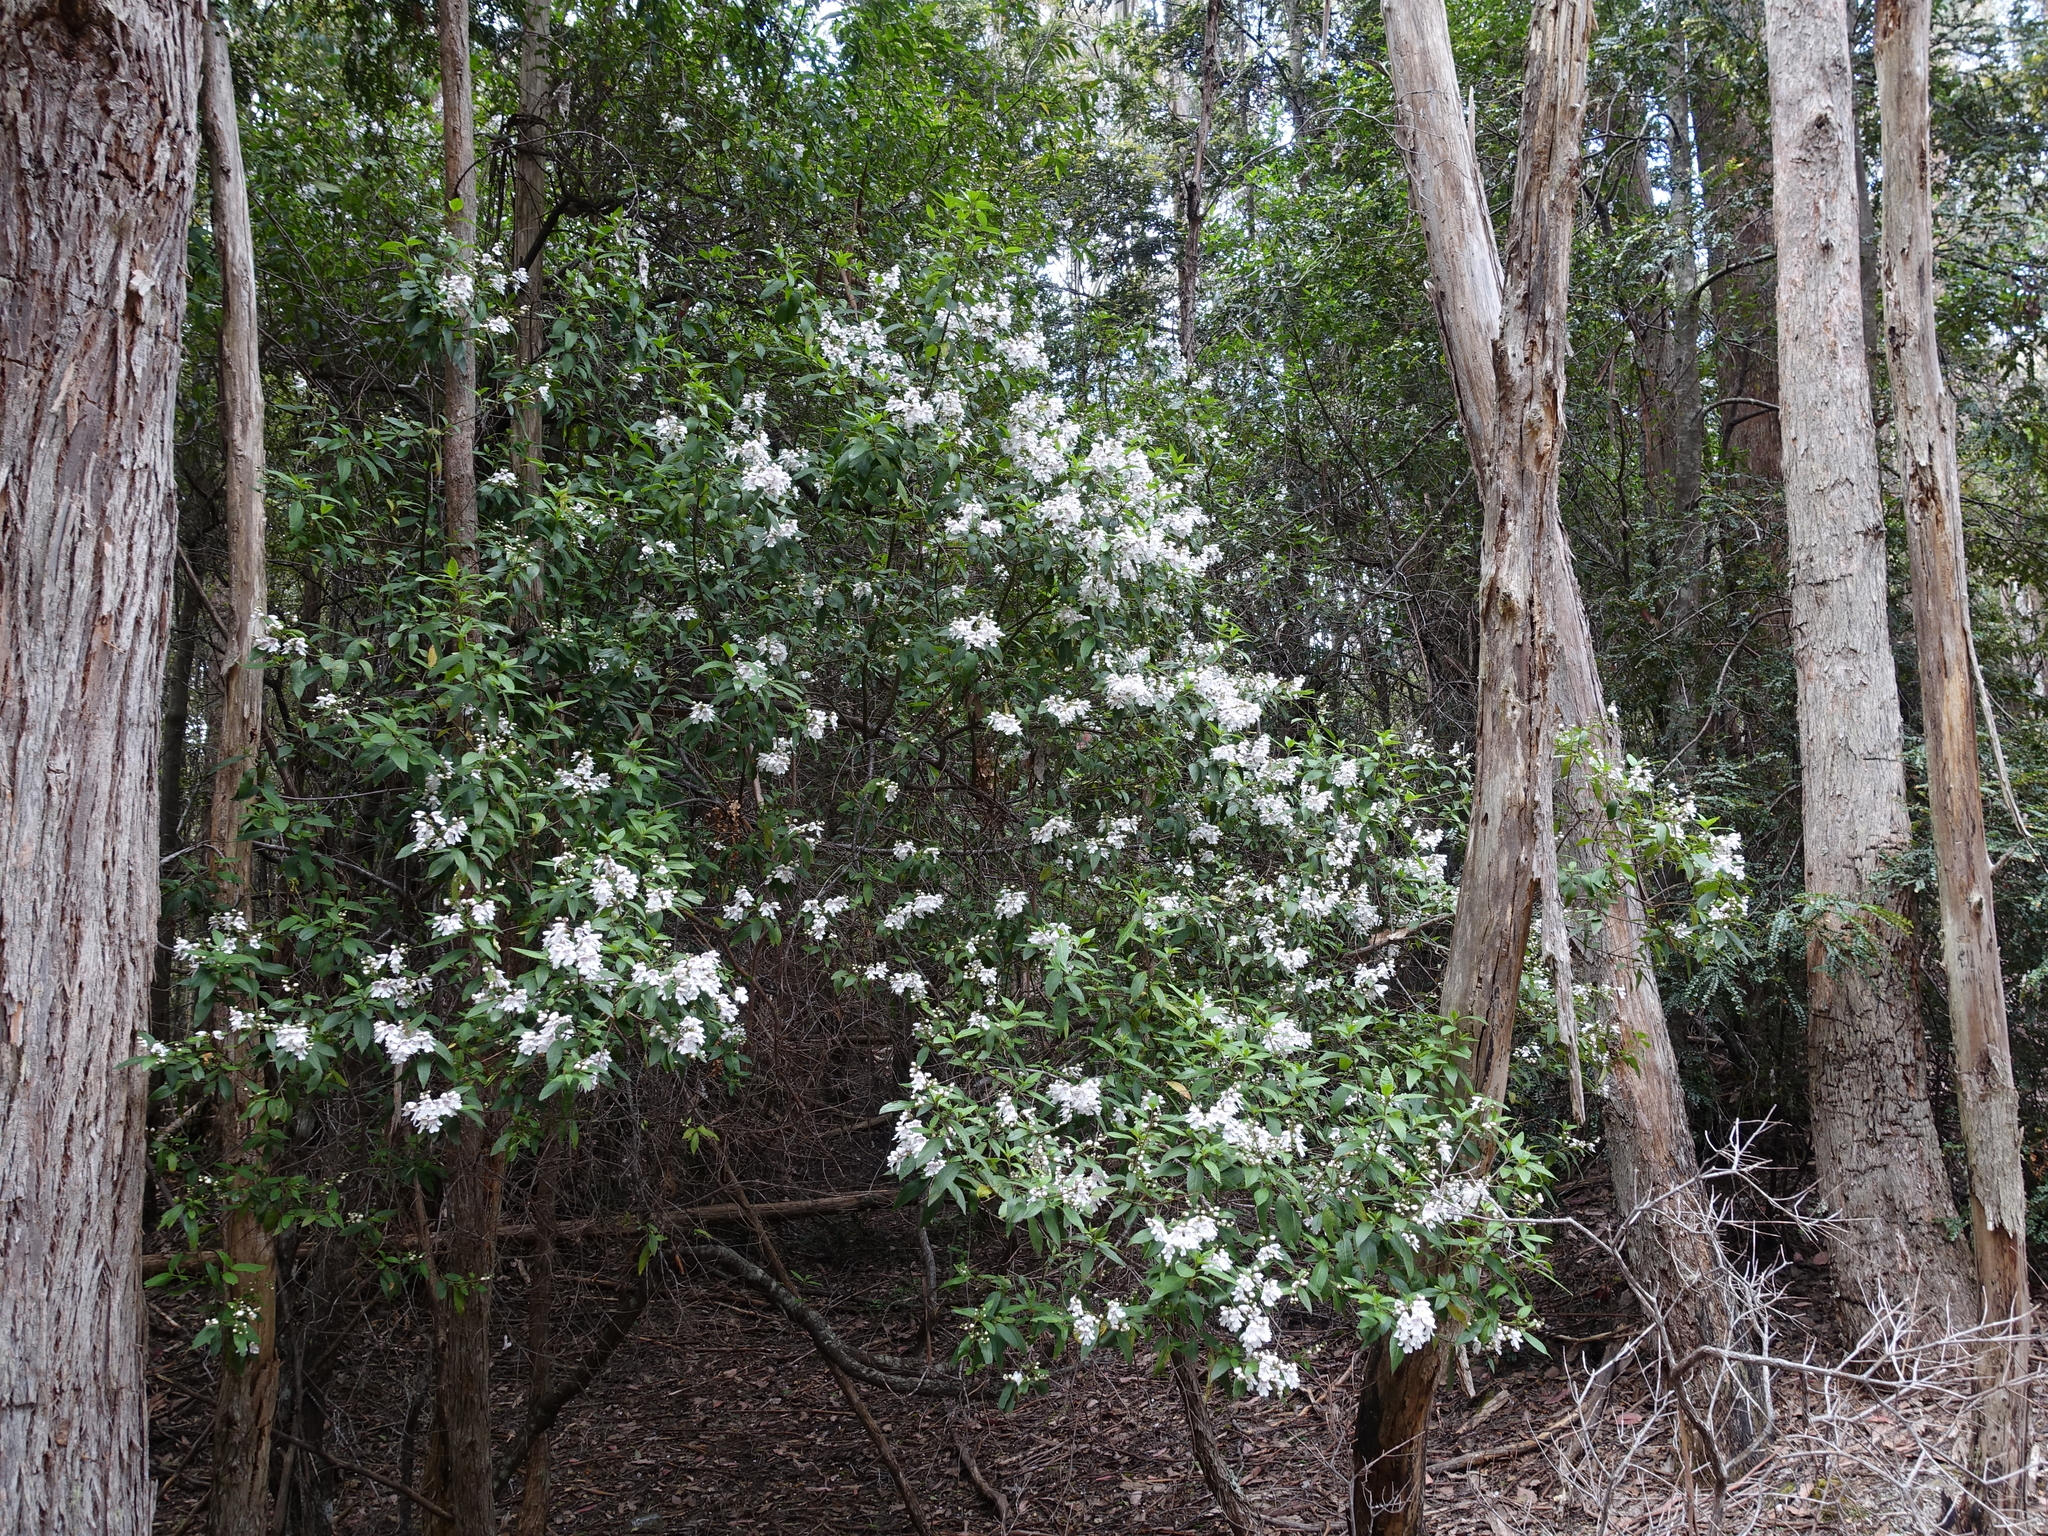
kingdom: Plantae
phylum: Tracheophyta
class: Magnoliopsida
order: Lamiales
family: Lamiaceae
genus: Prostanthera
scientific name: Prostanthera lasianthos
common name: Mountain-lilac
